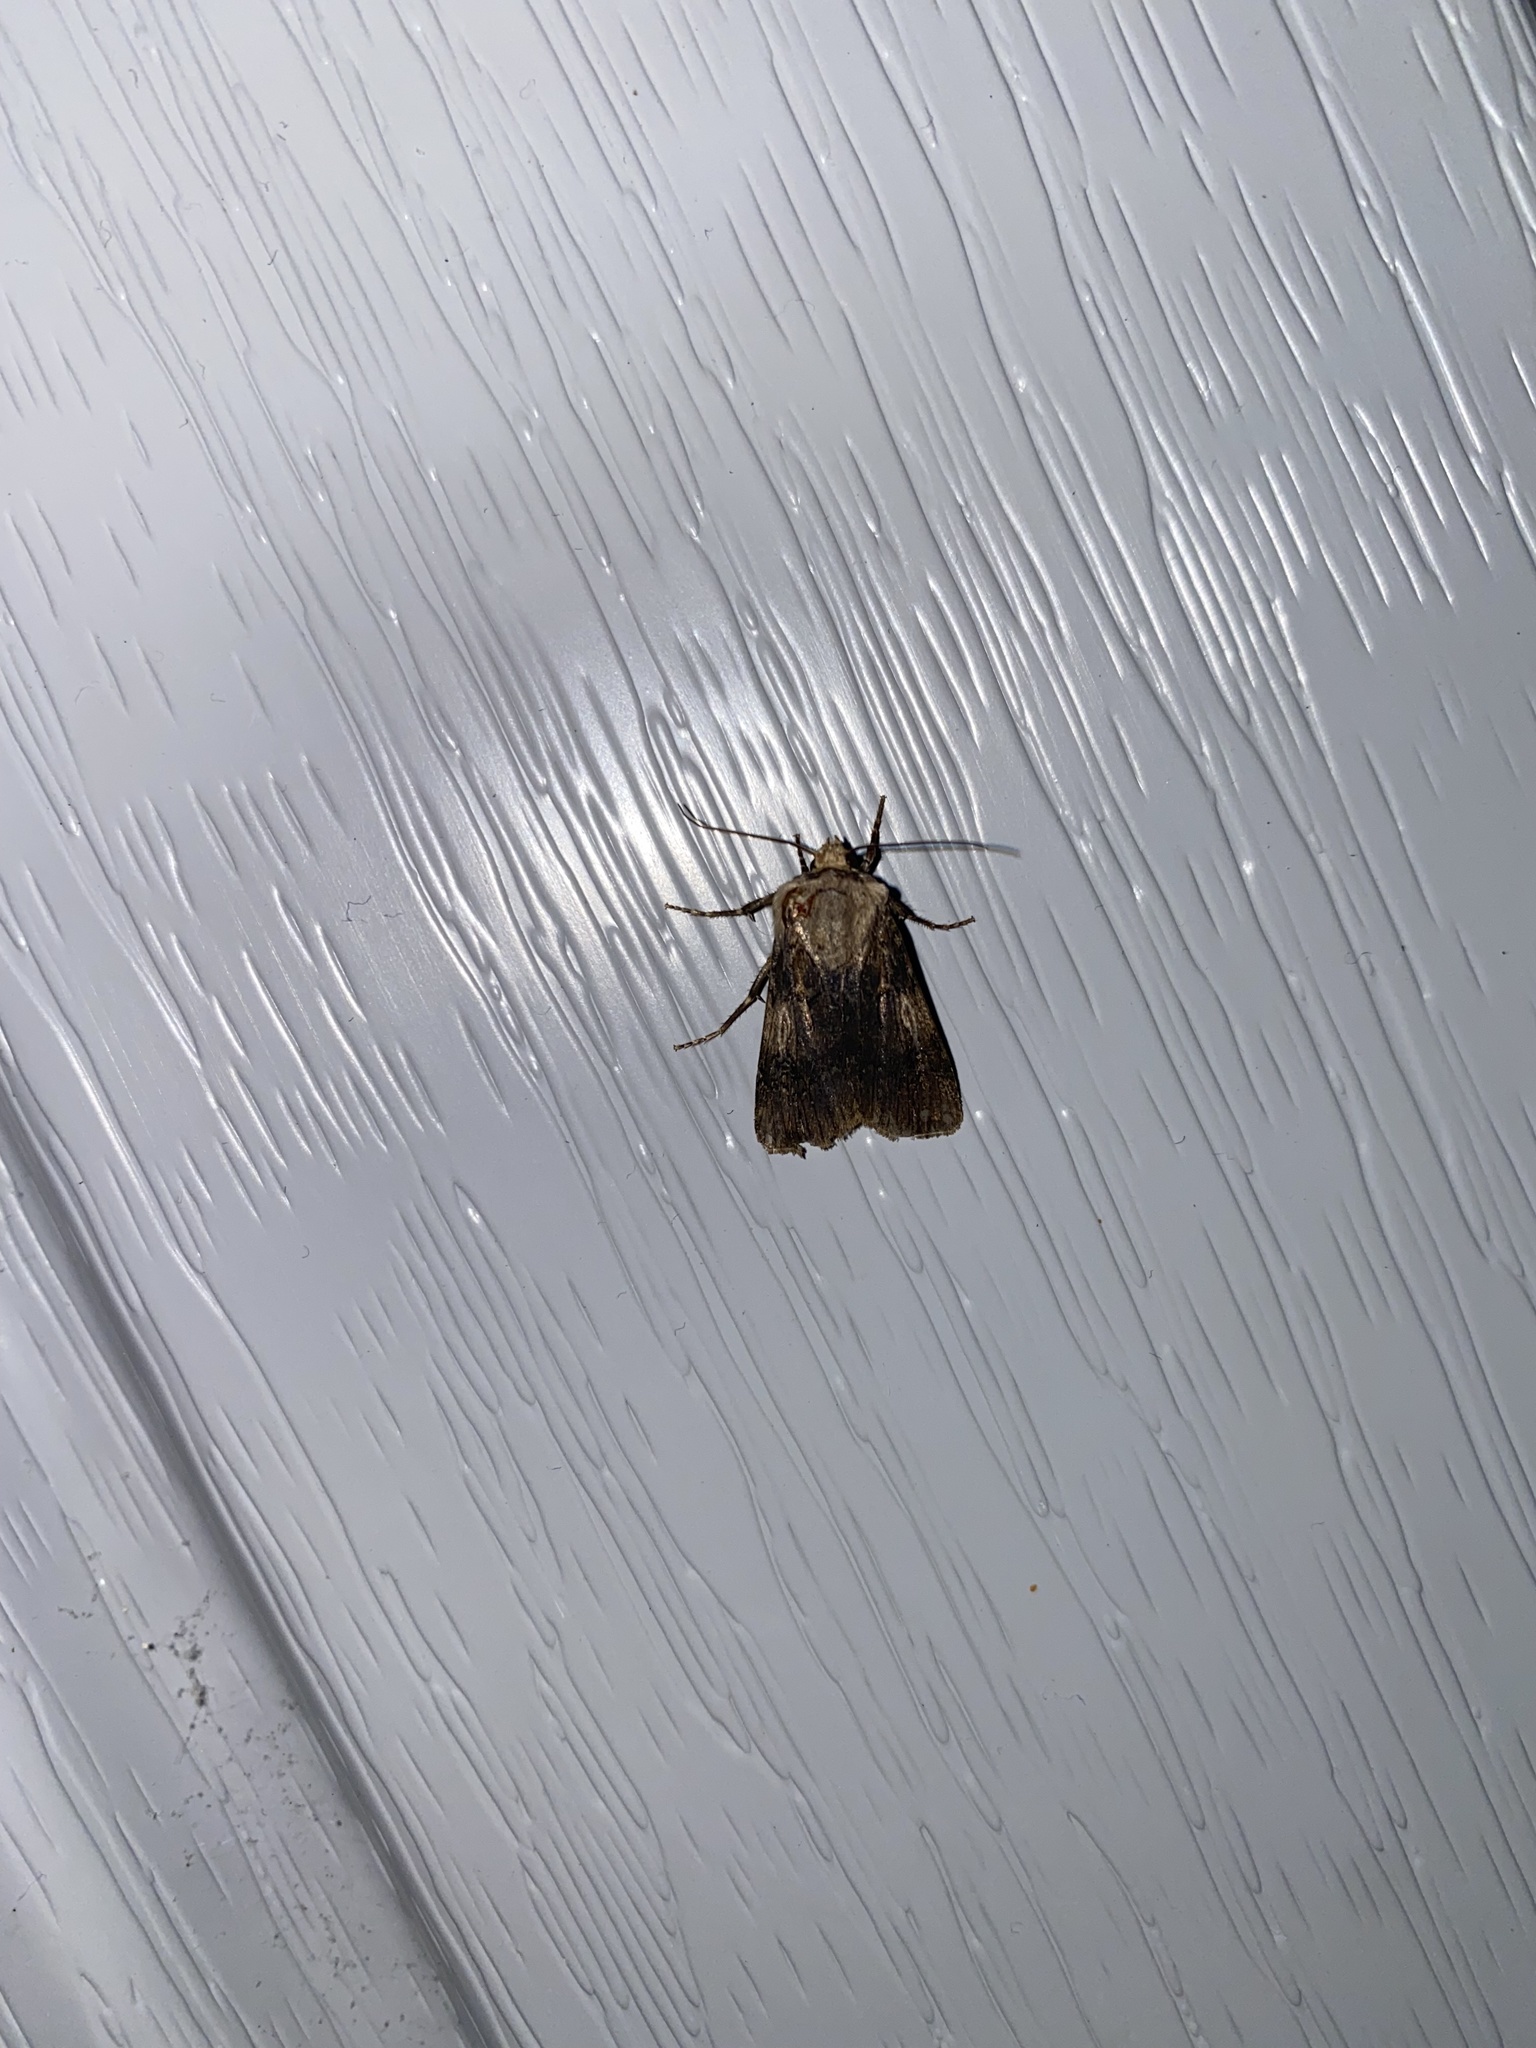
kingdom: Animalia
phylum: Arthropoda
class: Insecta
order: Lepidoptera
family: Noctuidae
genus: Agrotis
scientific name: Agrotis puta
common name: Shuttle-shaped dart
